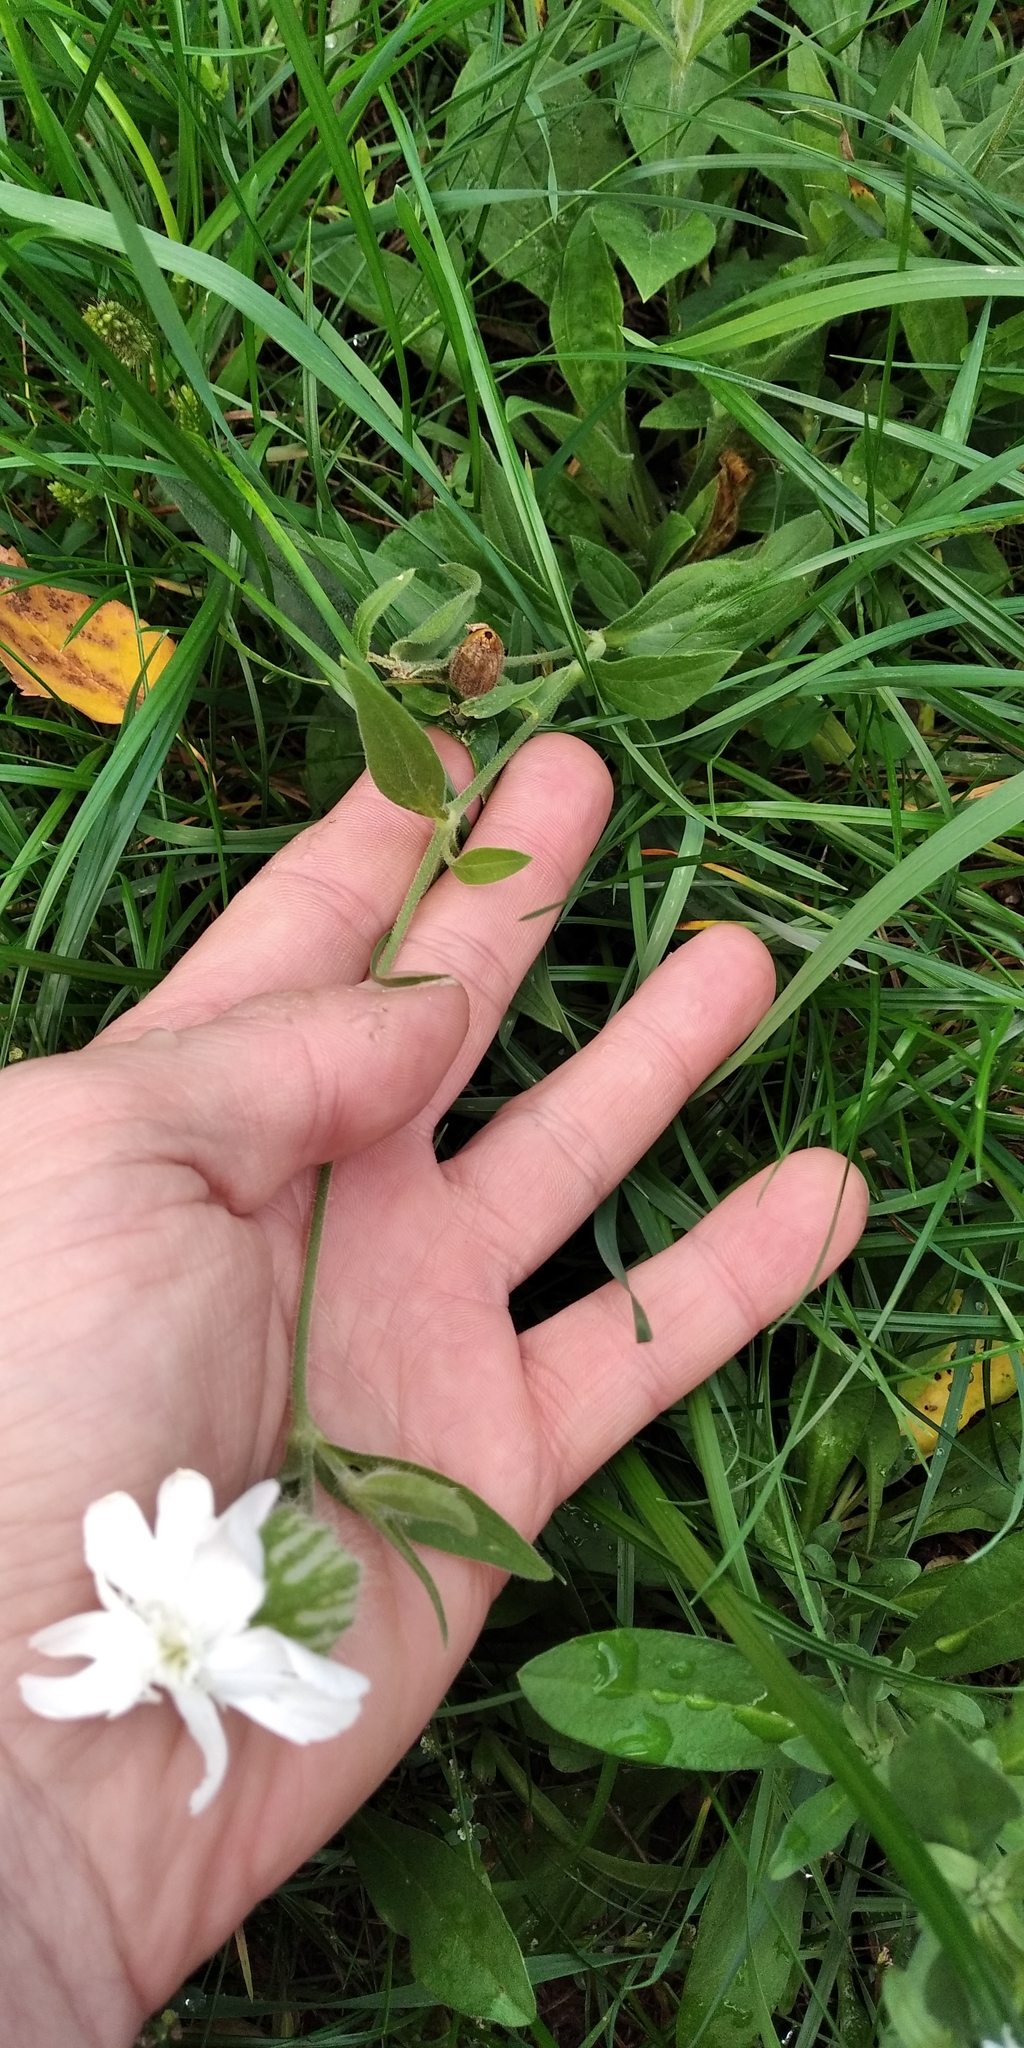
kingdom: Plantae
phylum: Tracheophyta
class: Magnoliopsida
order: Caryophyllales
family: Caryophyllaceae
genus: Silene
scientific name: Silene latifolia
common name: White campion
